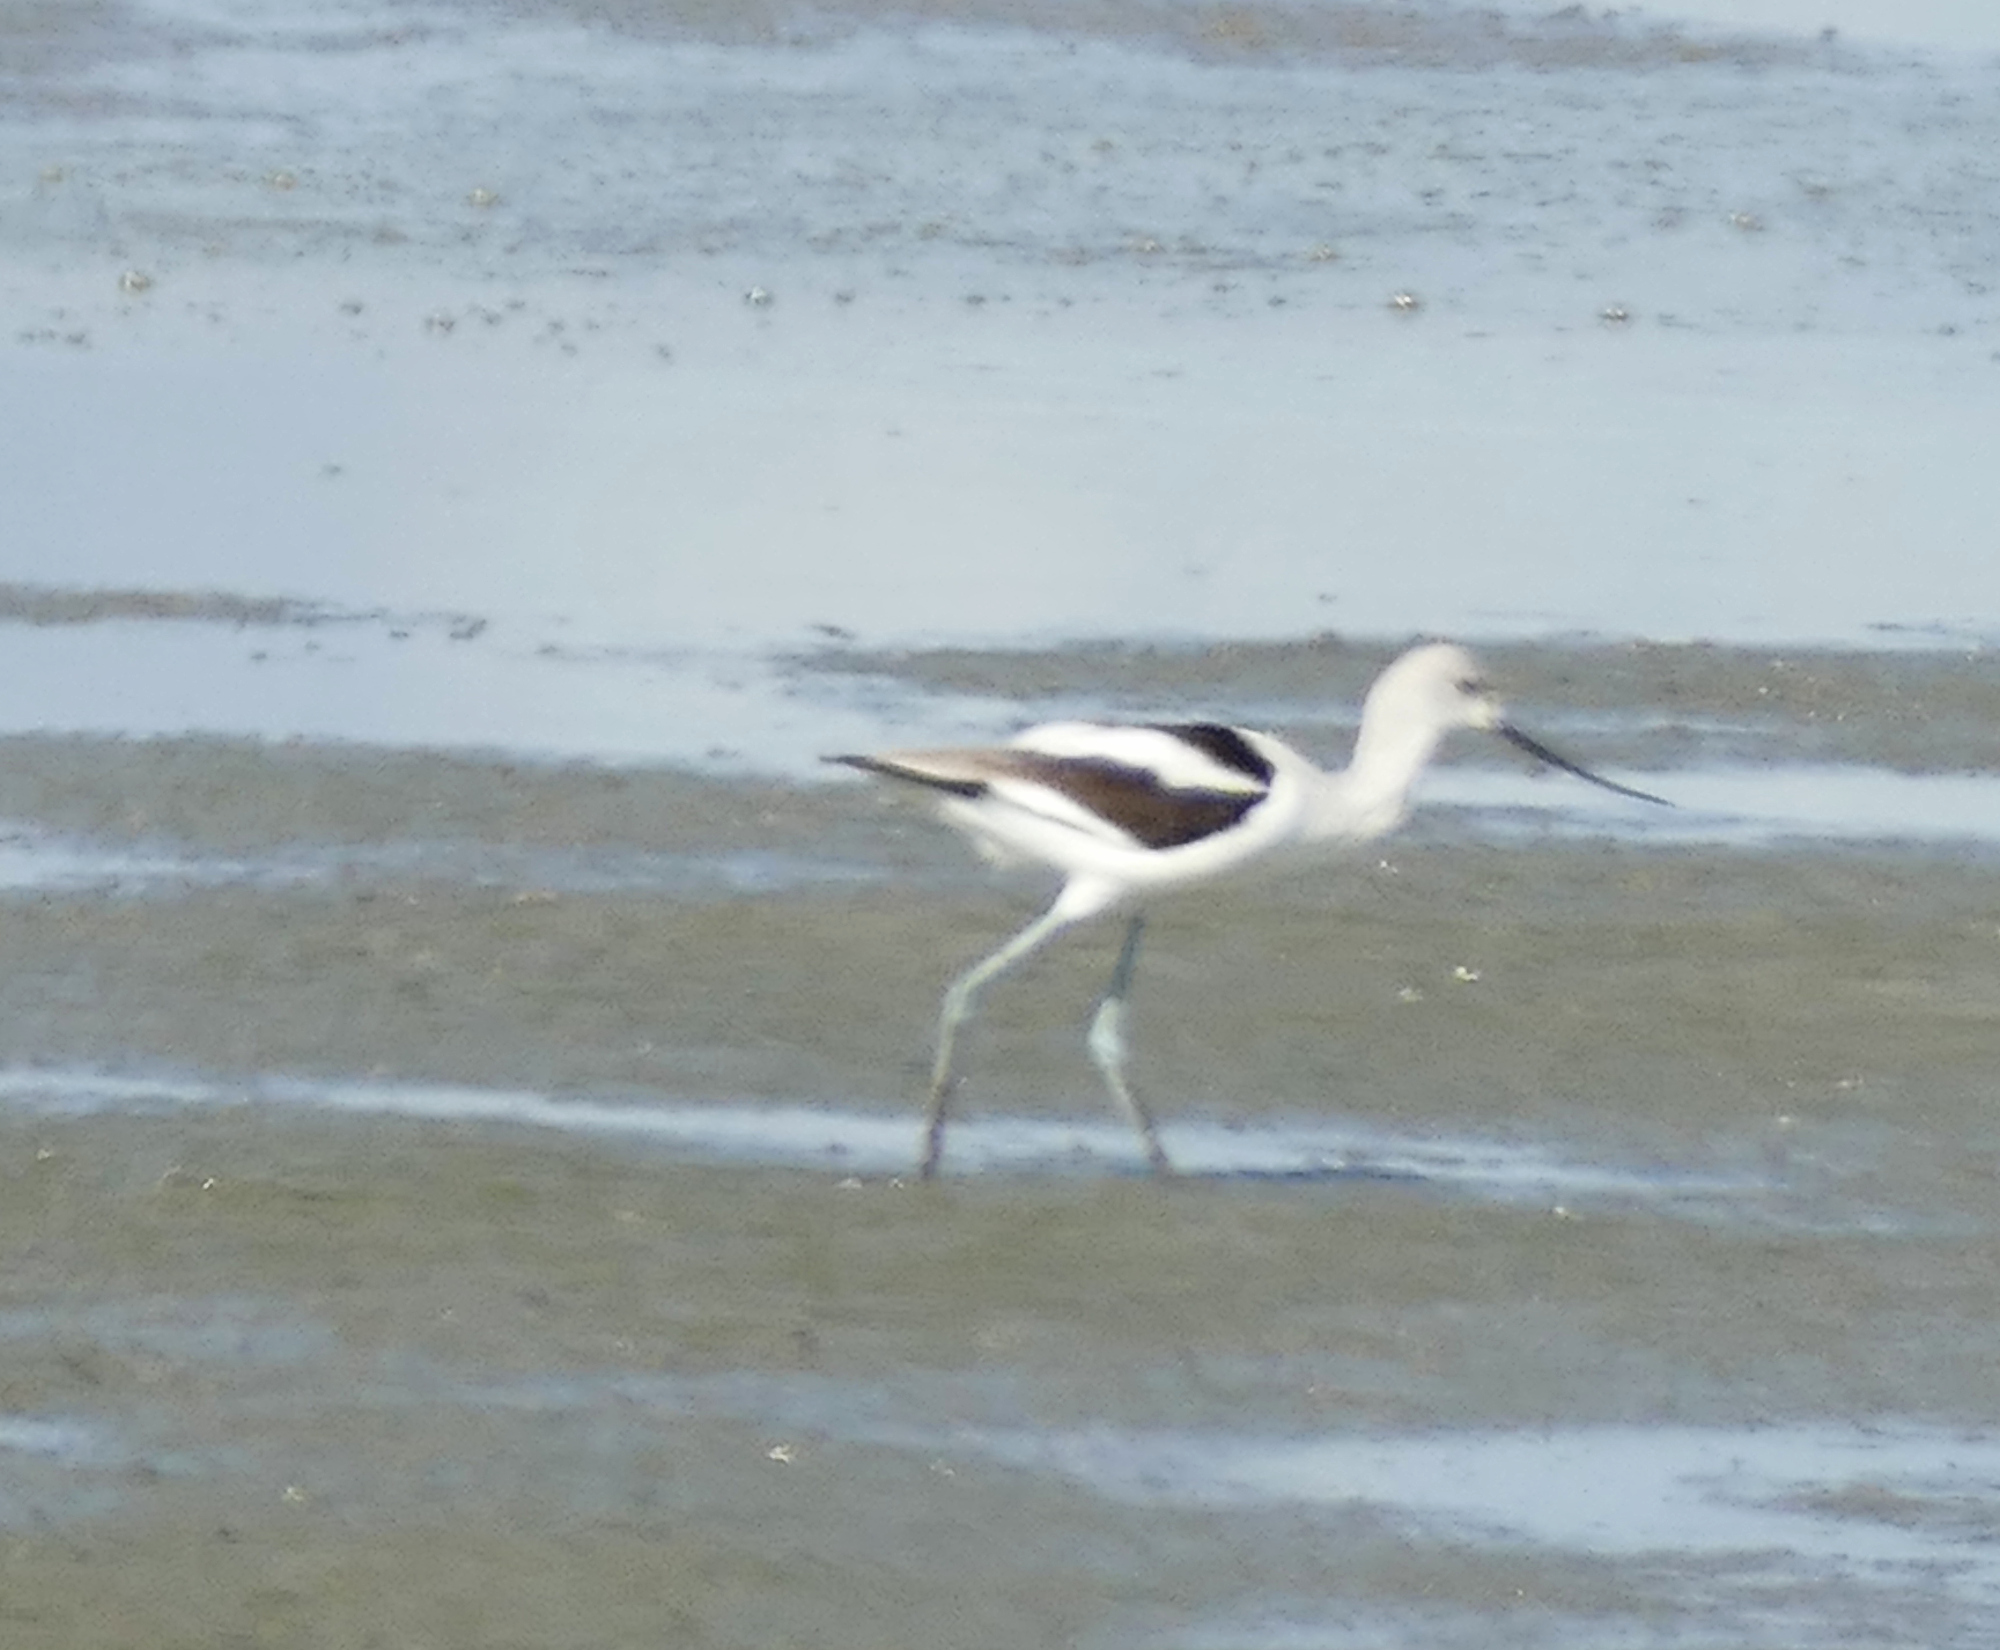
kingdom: Animalia
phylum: Chordata
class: Aves
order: Charadriiformes
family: Recurvirostridae
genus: Recurvirostra
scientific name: Recurvirostra americana
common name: American avocet
